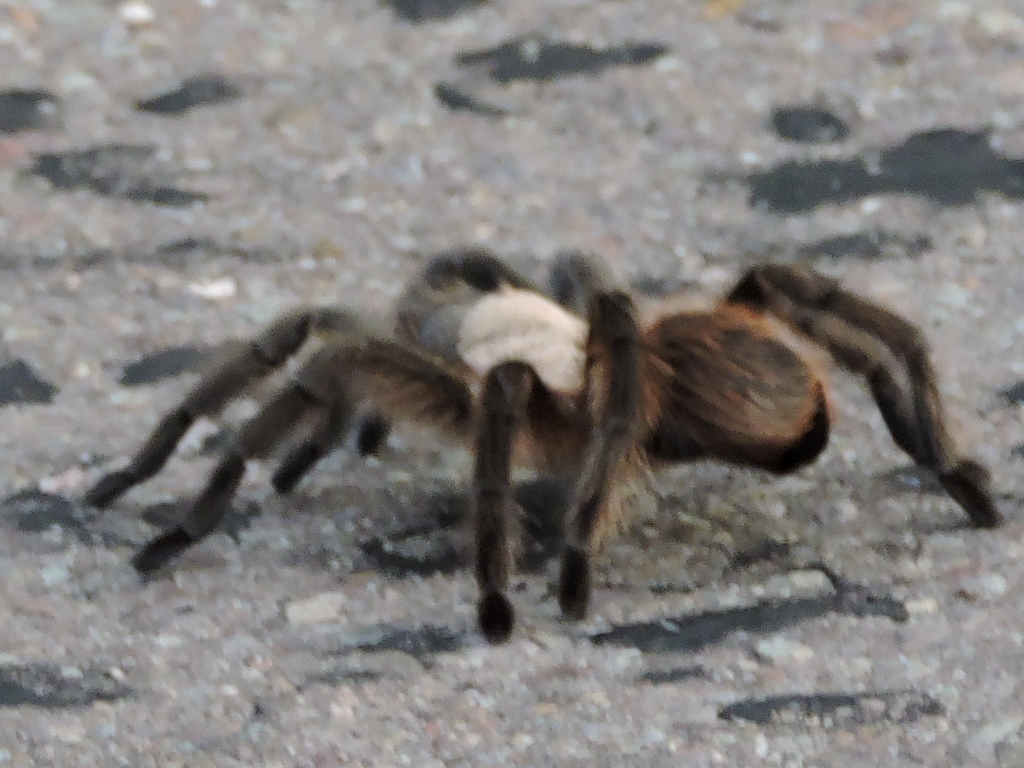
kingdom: Animalia
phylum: Arthropoda
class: Arachnida
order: Araneae
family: Theraphosidae
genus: Aphonopelma
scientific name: Aphonopelma hentzi
